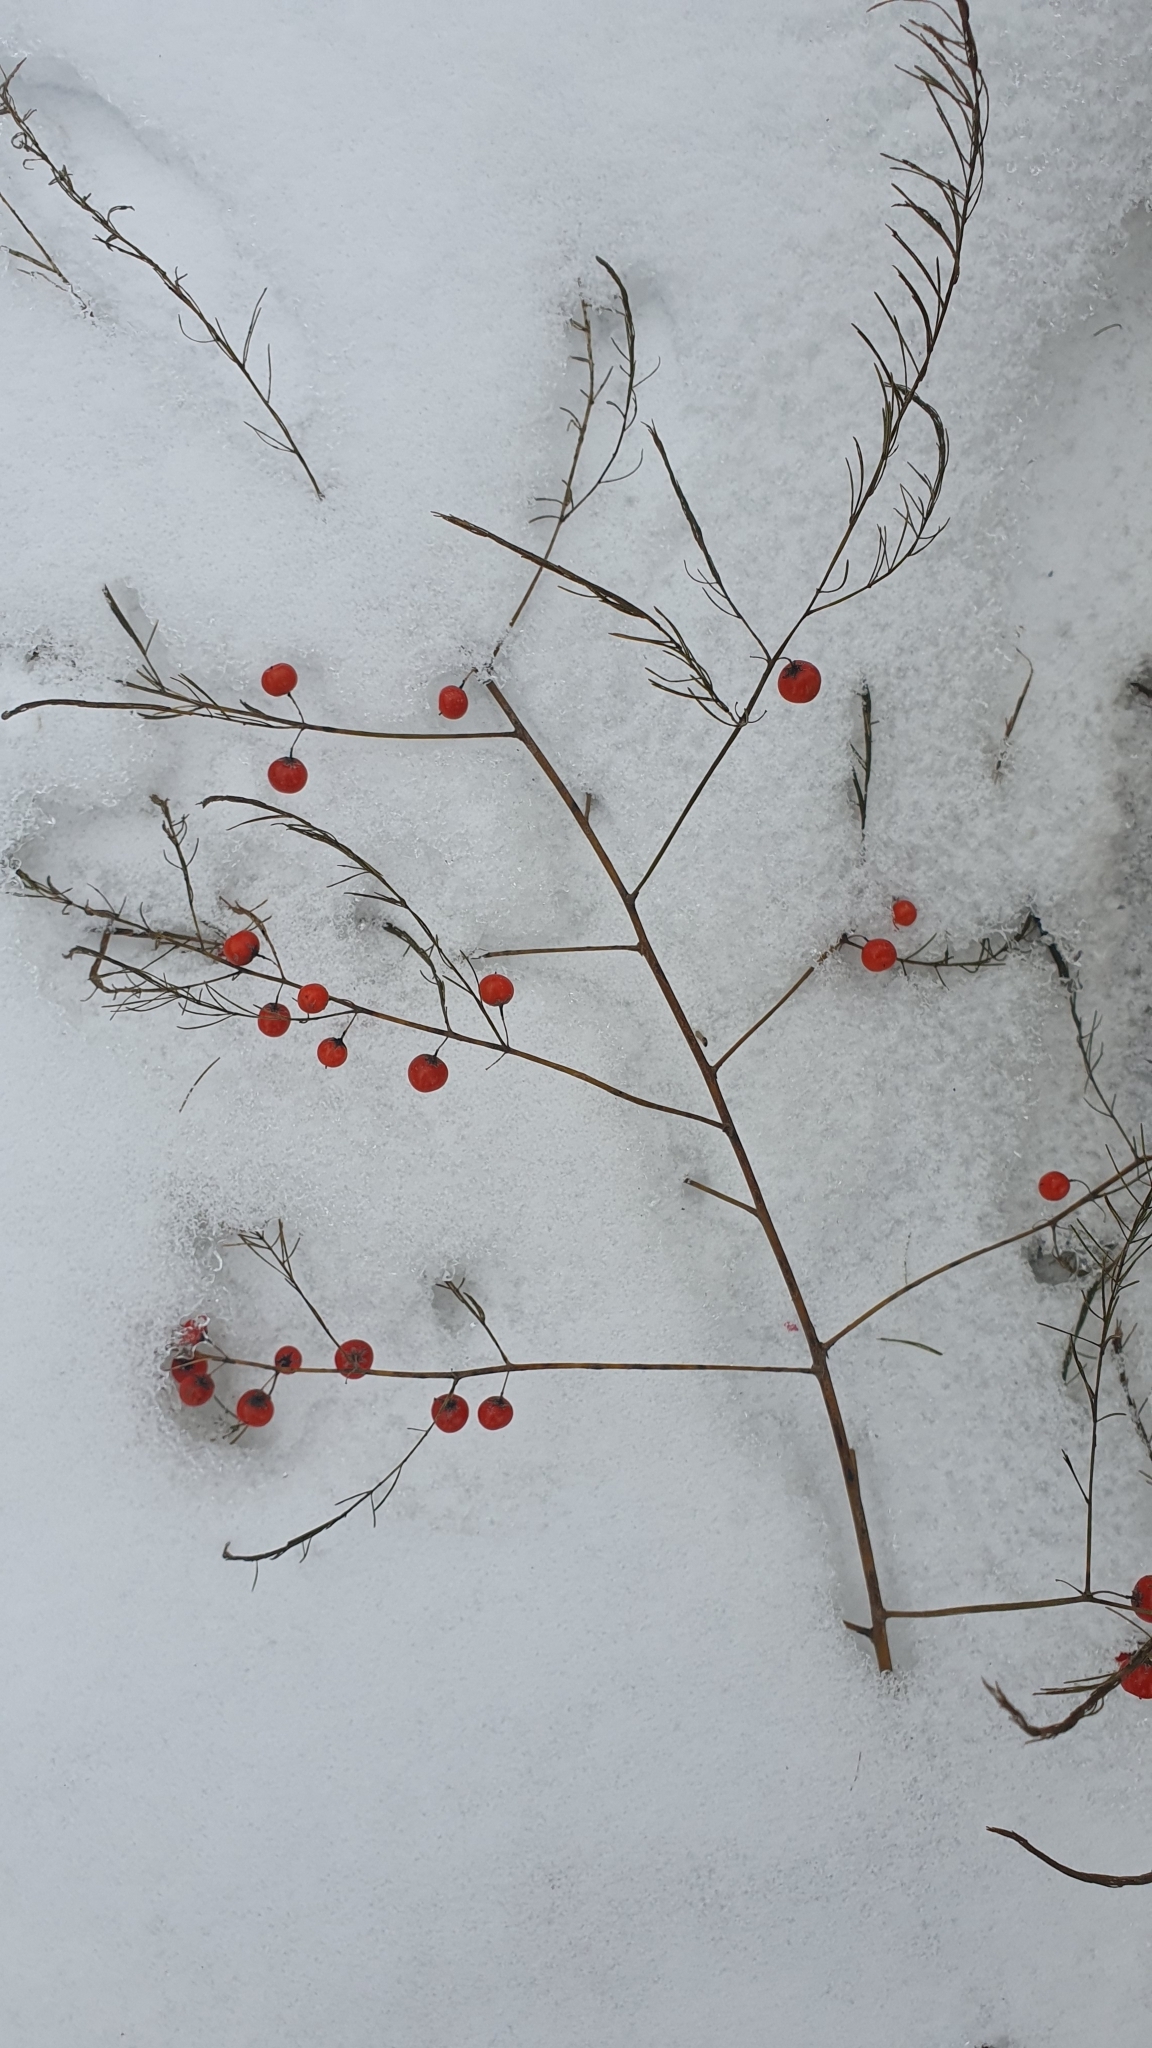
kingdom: Plantae
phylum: Tracheophyta
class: Liliopsida
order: Asparagales
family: Asparagaceae
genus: Asparagus
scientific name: Asparagus officinalis
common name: Garden asparagus
